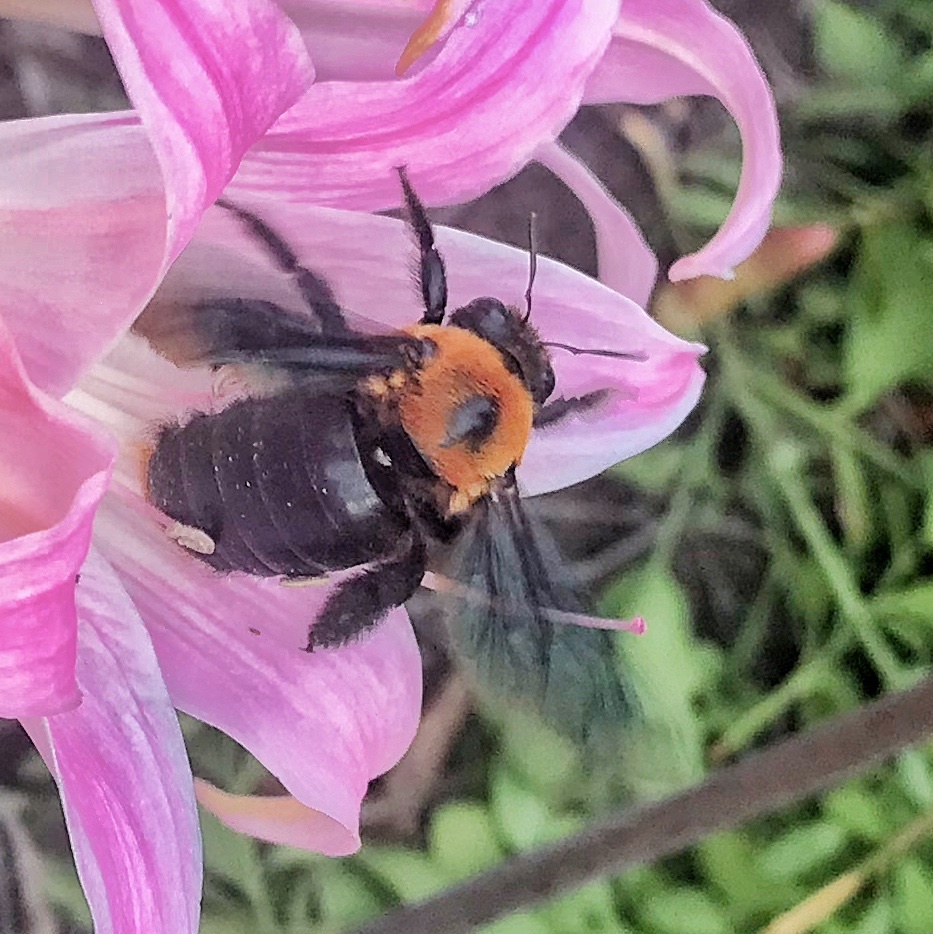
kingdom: Animalia
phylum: Arthropoda
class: Insecta
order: Hymenoptera
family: Apidae
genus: Xylocopa
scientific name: Xylocopa flavorufa
